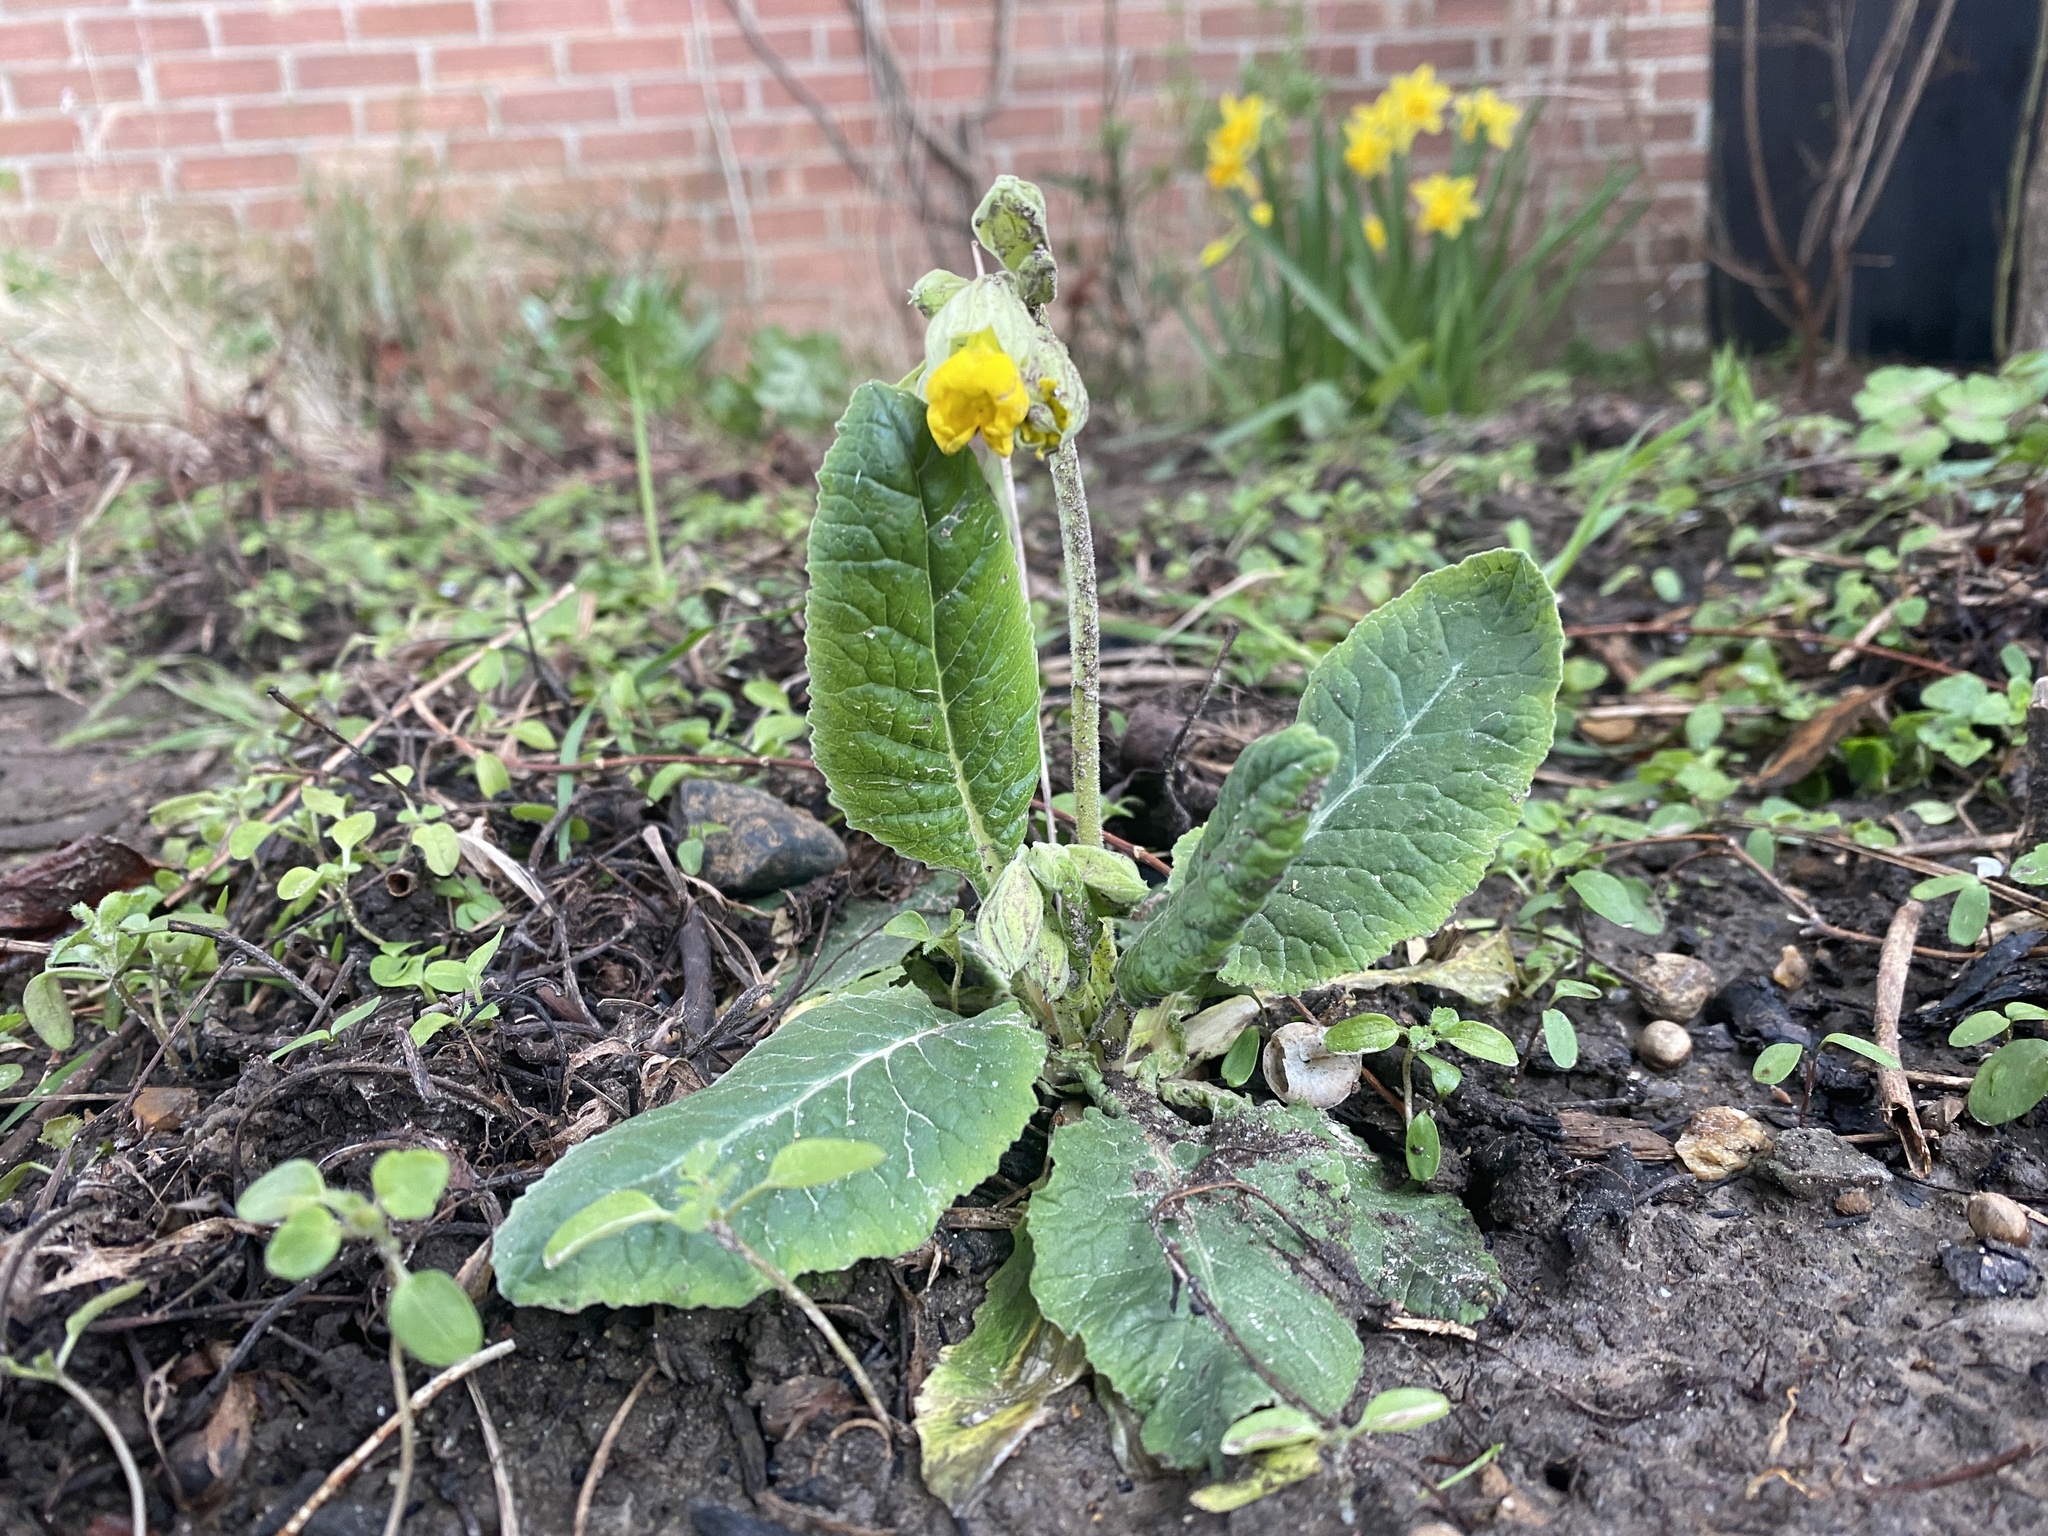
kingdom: Plantae
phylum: Tracheophyta
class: Magnoliopsida
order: Ericales
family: Primulaceae
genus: Primula
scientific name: Primula veris
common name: Cowslip
